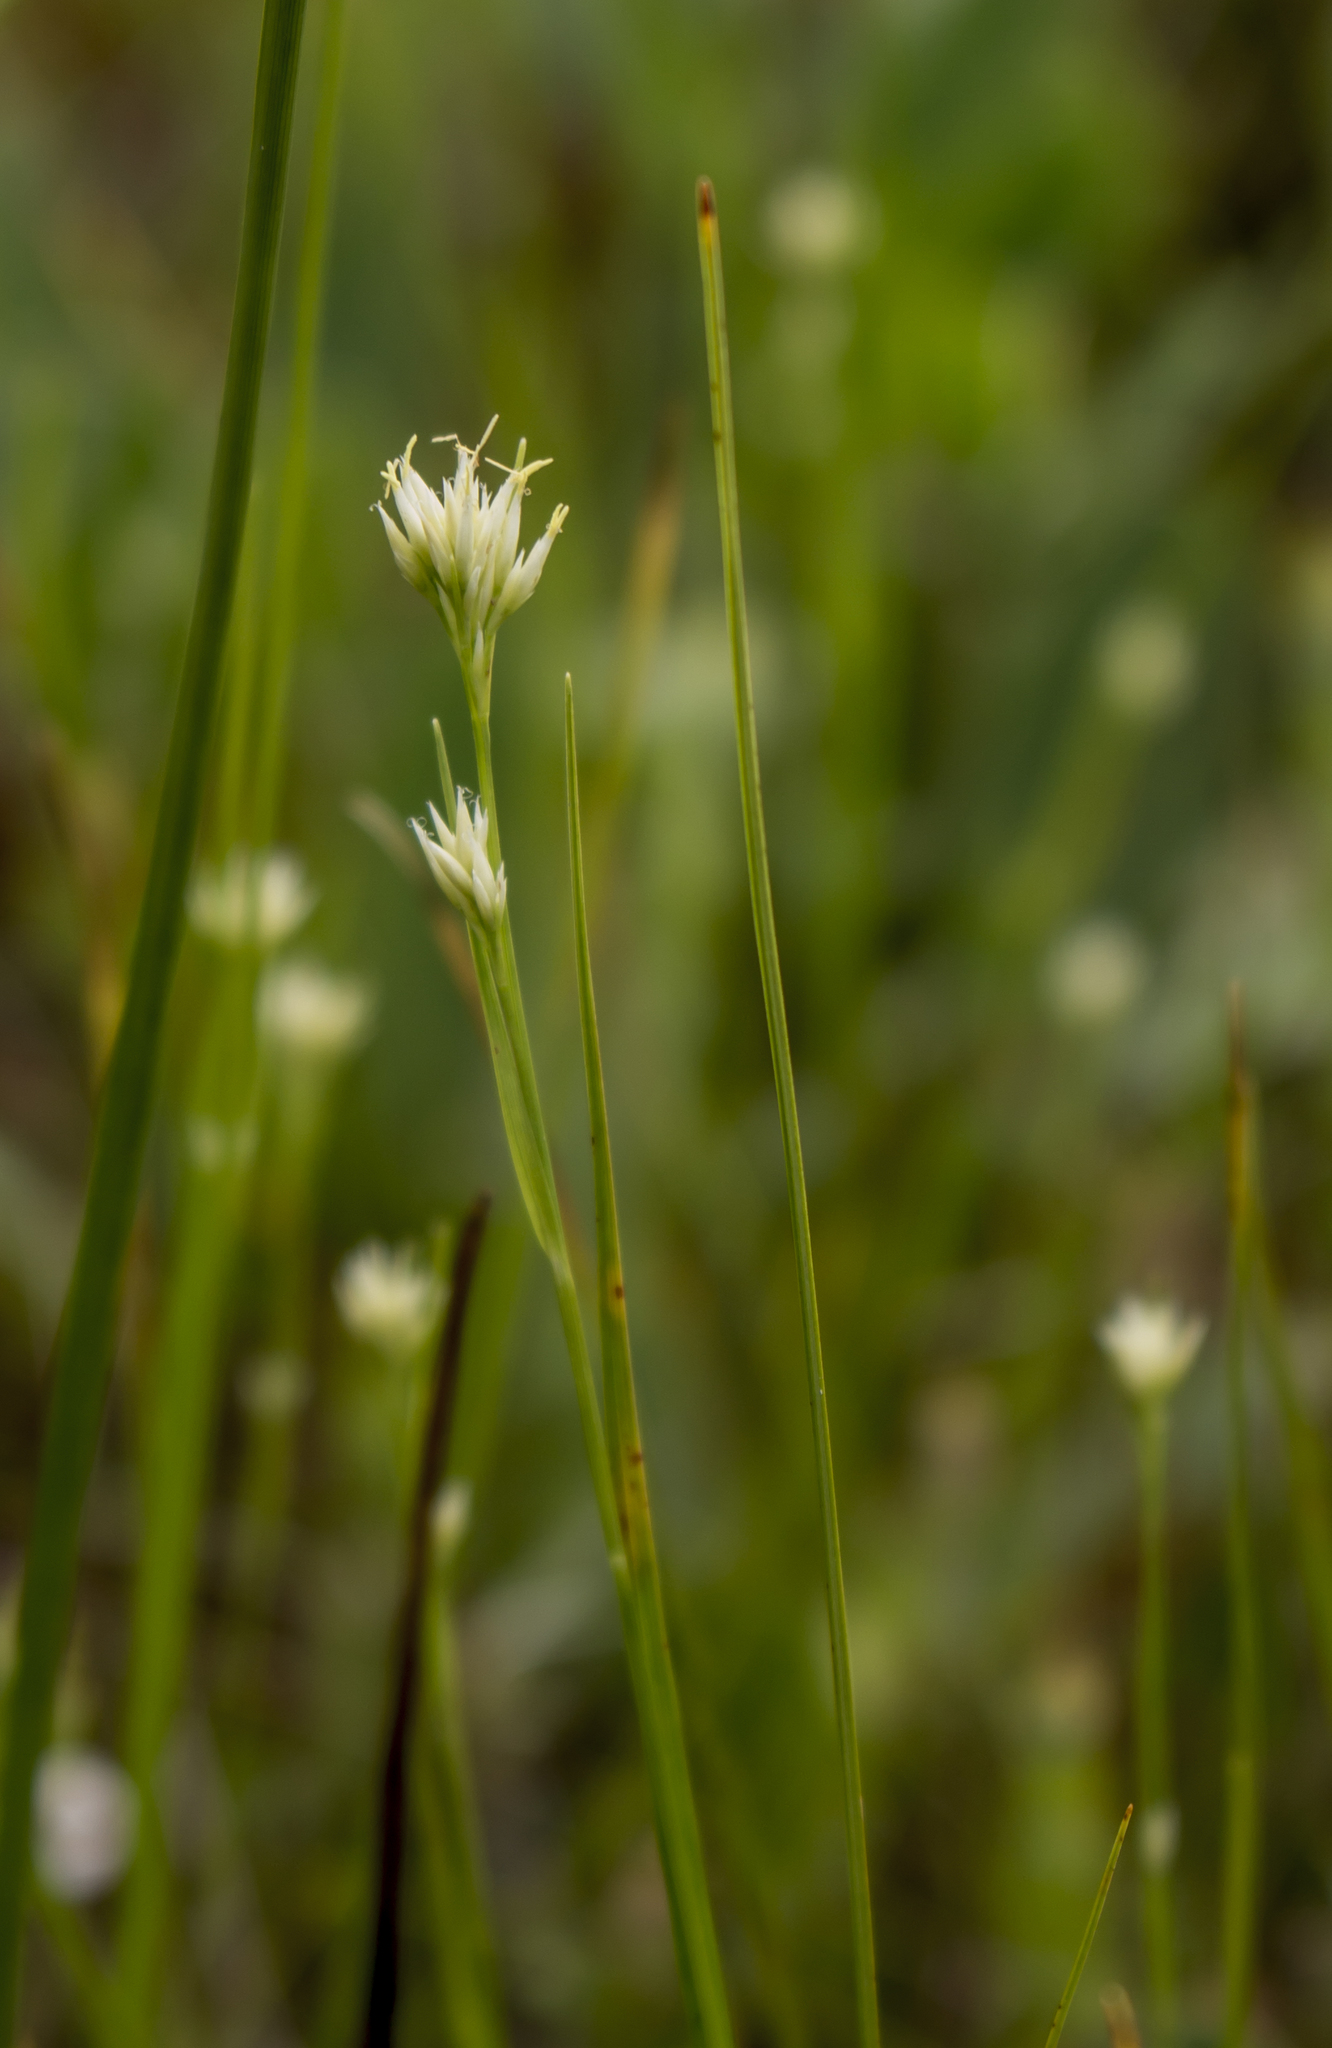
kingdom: Plantae
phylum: Tracheophyta
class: Liliopsida
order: Poales
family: Cyperaceae
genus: Rhynchospora
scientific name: Rhynchospora alba
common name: White beak-sedge
